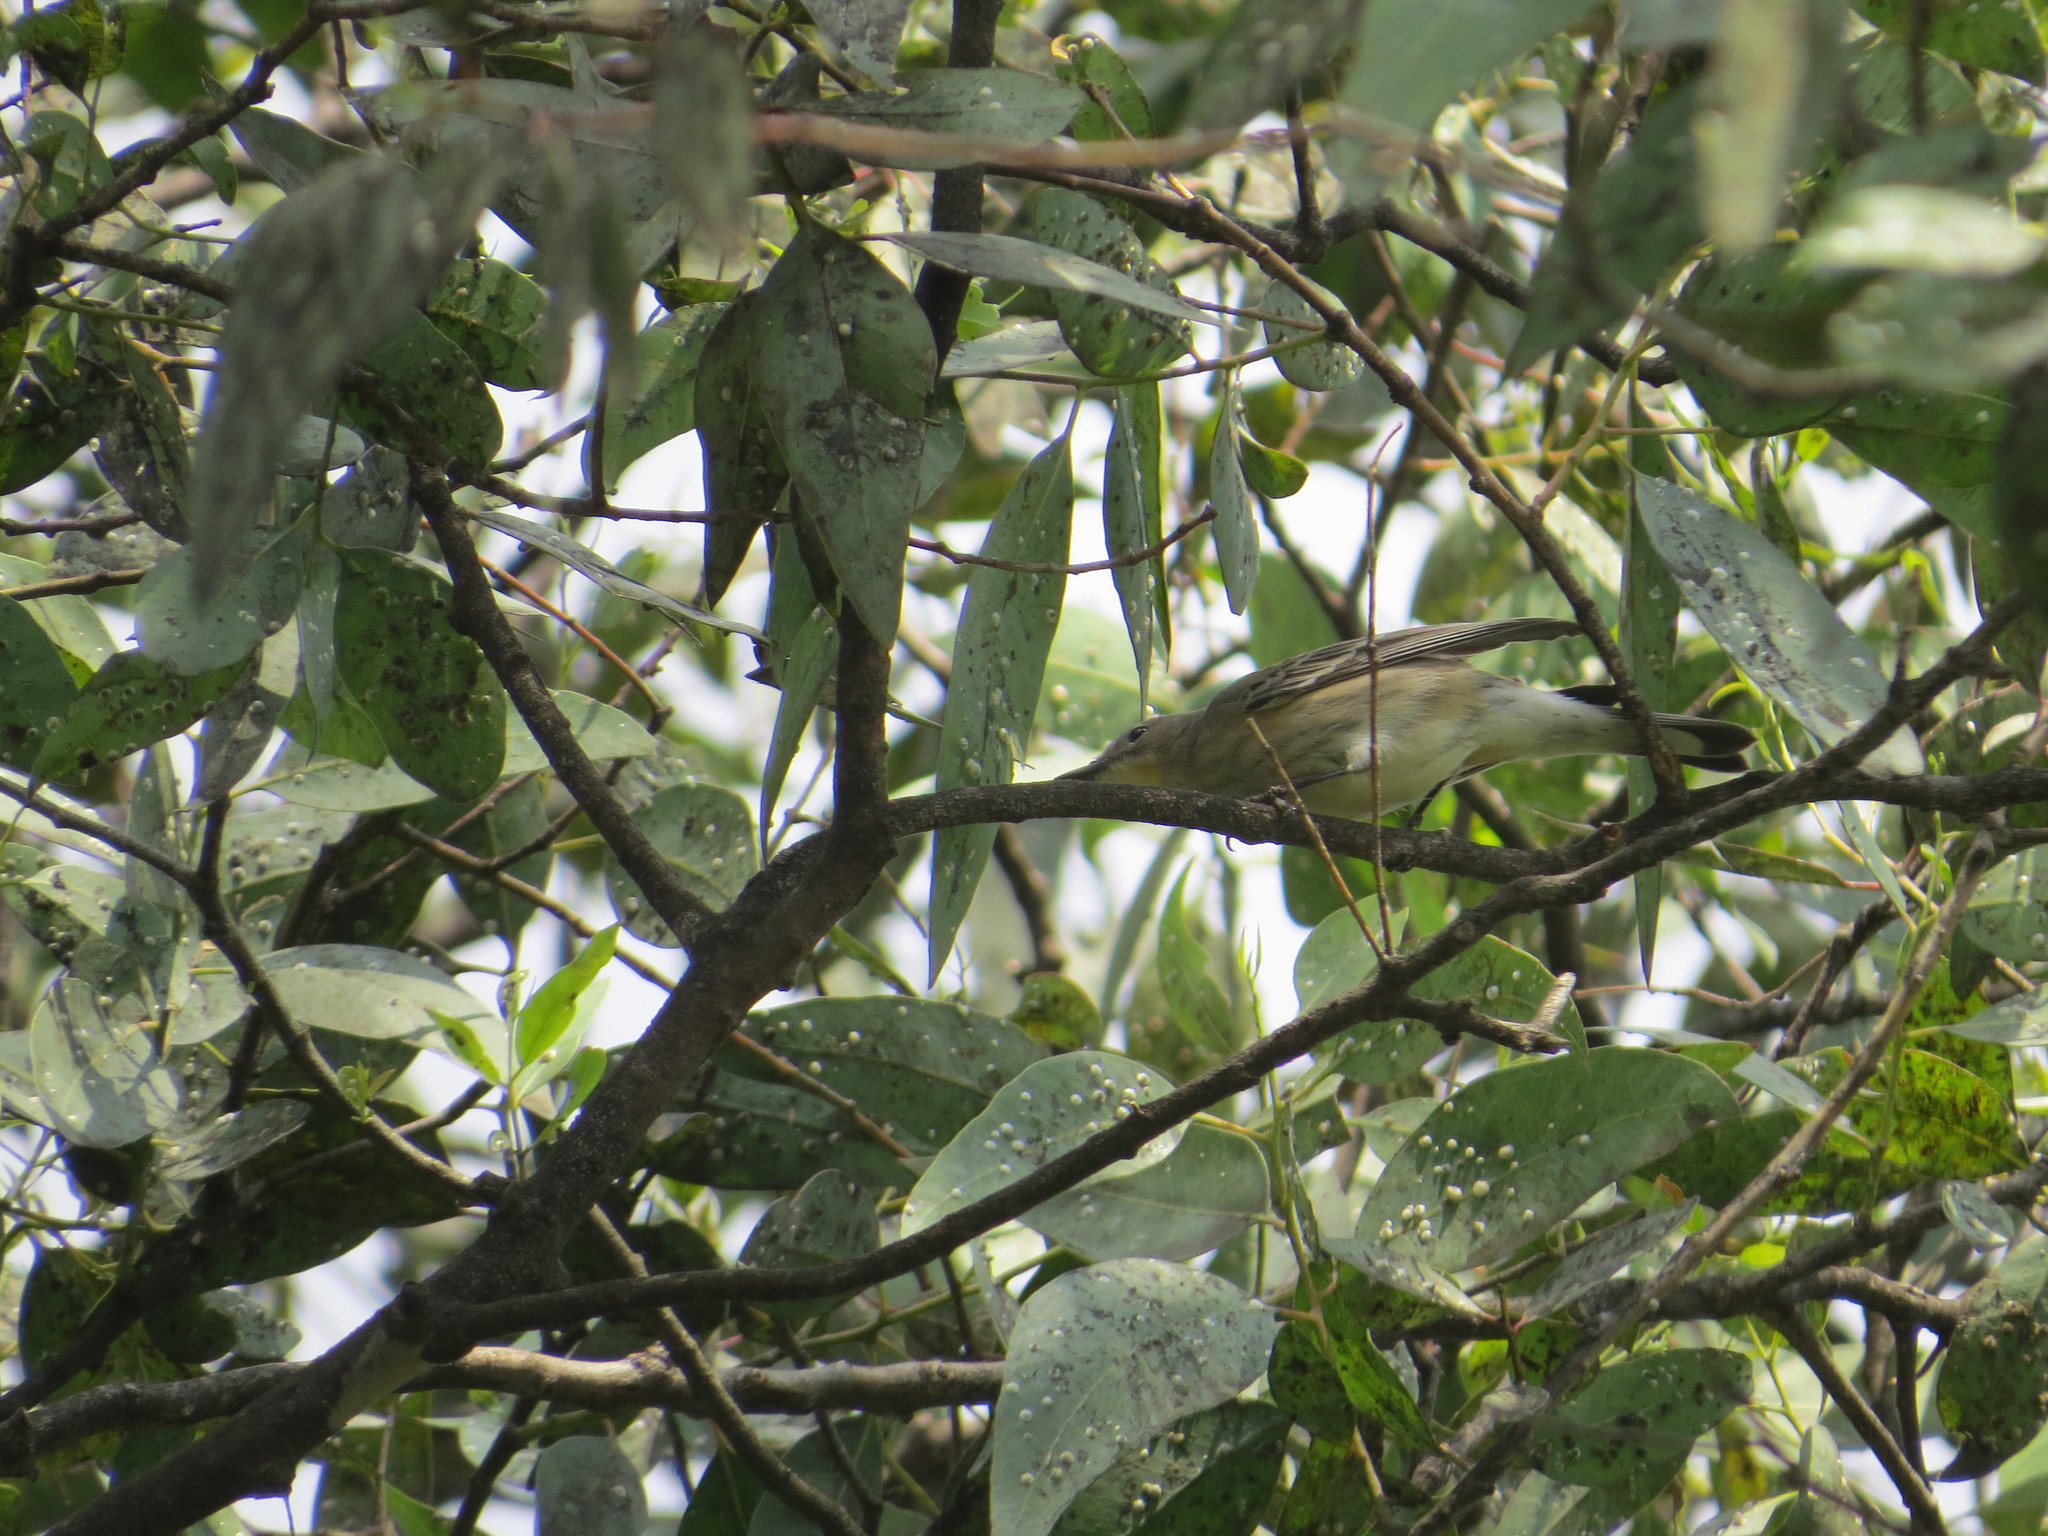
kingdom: Animalia
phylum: Chordata
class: Aves
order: Passeriformes
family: Parulidae
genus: Setophaga
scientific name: Setophaga auduboni
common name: Audubon's warbler
